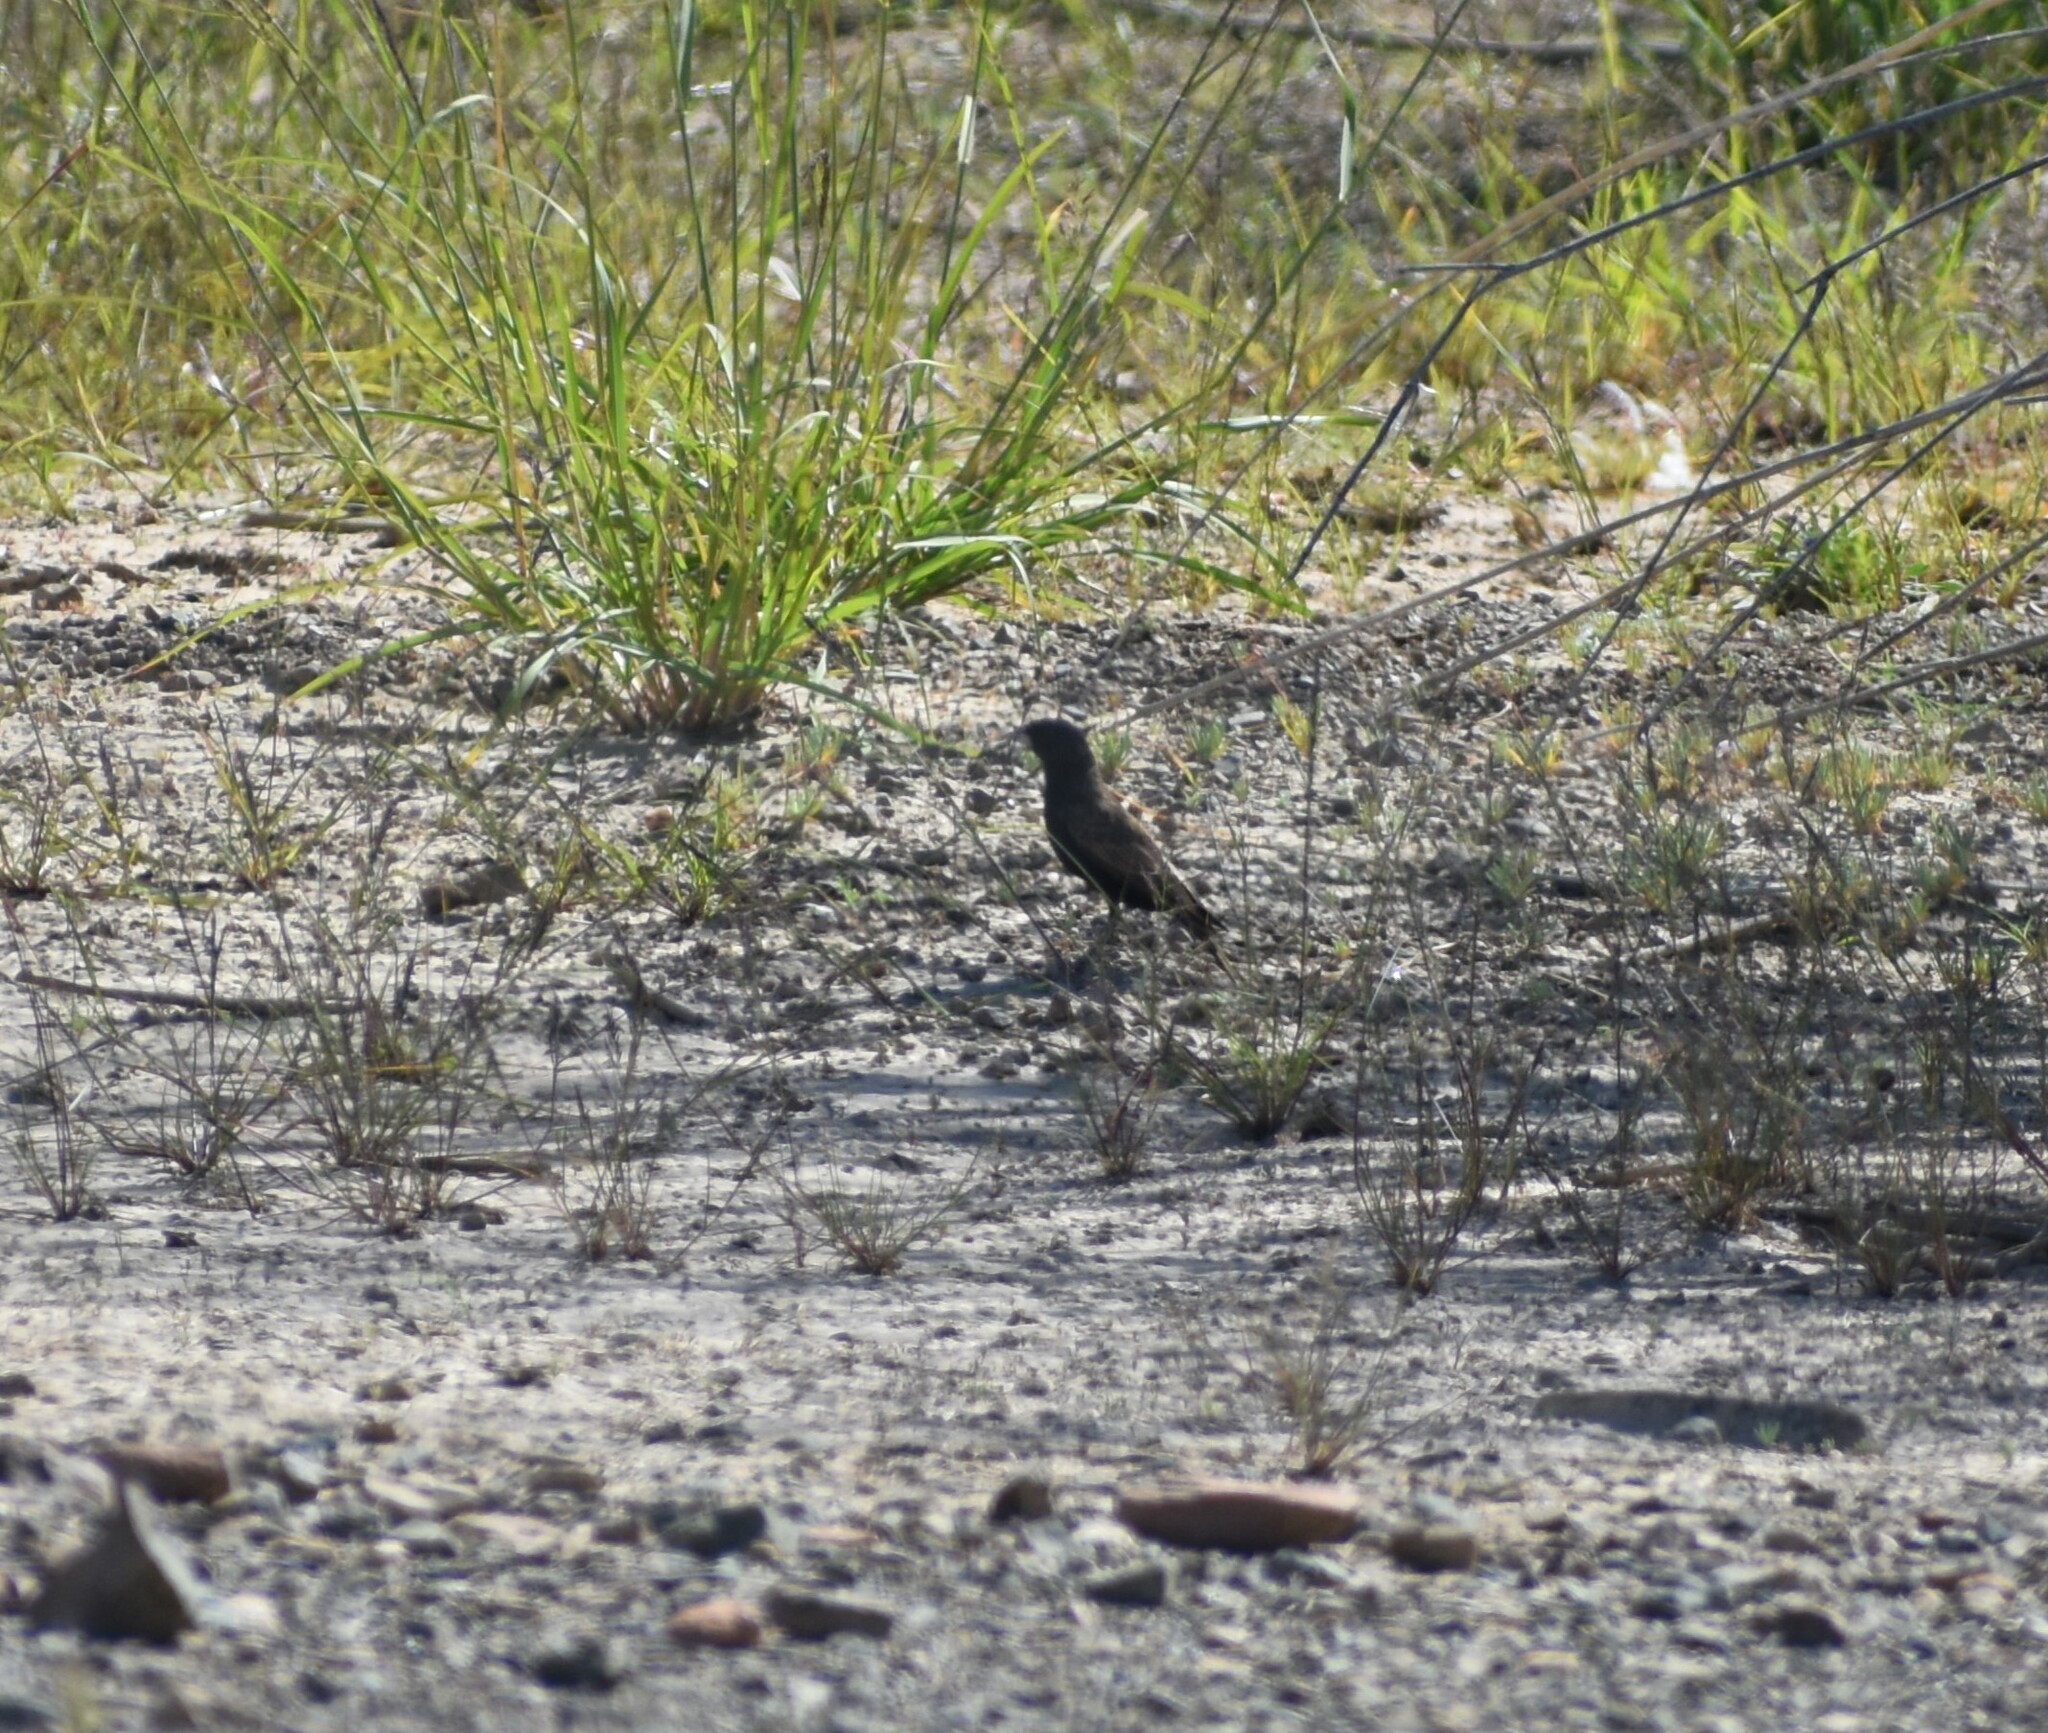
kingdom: Animalia
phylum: Chordata
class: Aves
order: Passeriformes
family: Alaudidae
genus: Eremopterix
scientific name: Eremopterix australis
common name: Black-eared sparrow-lark
